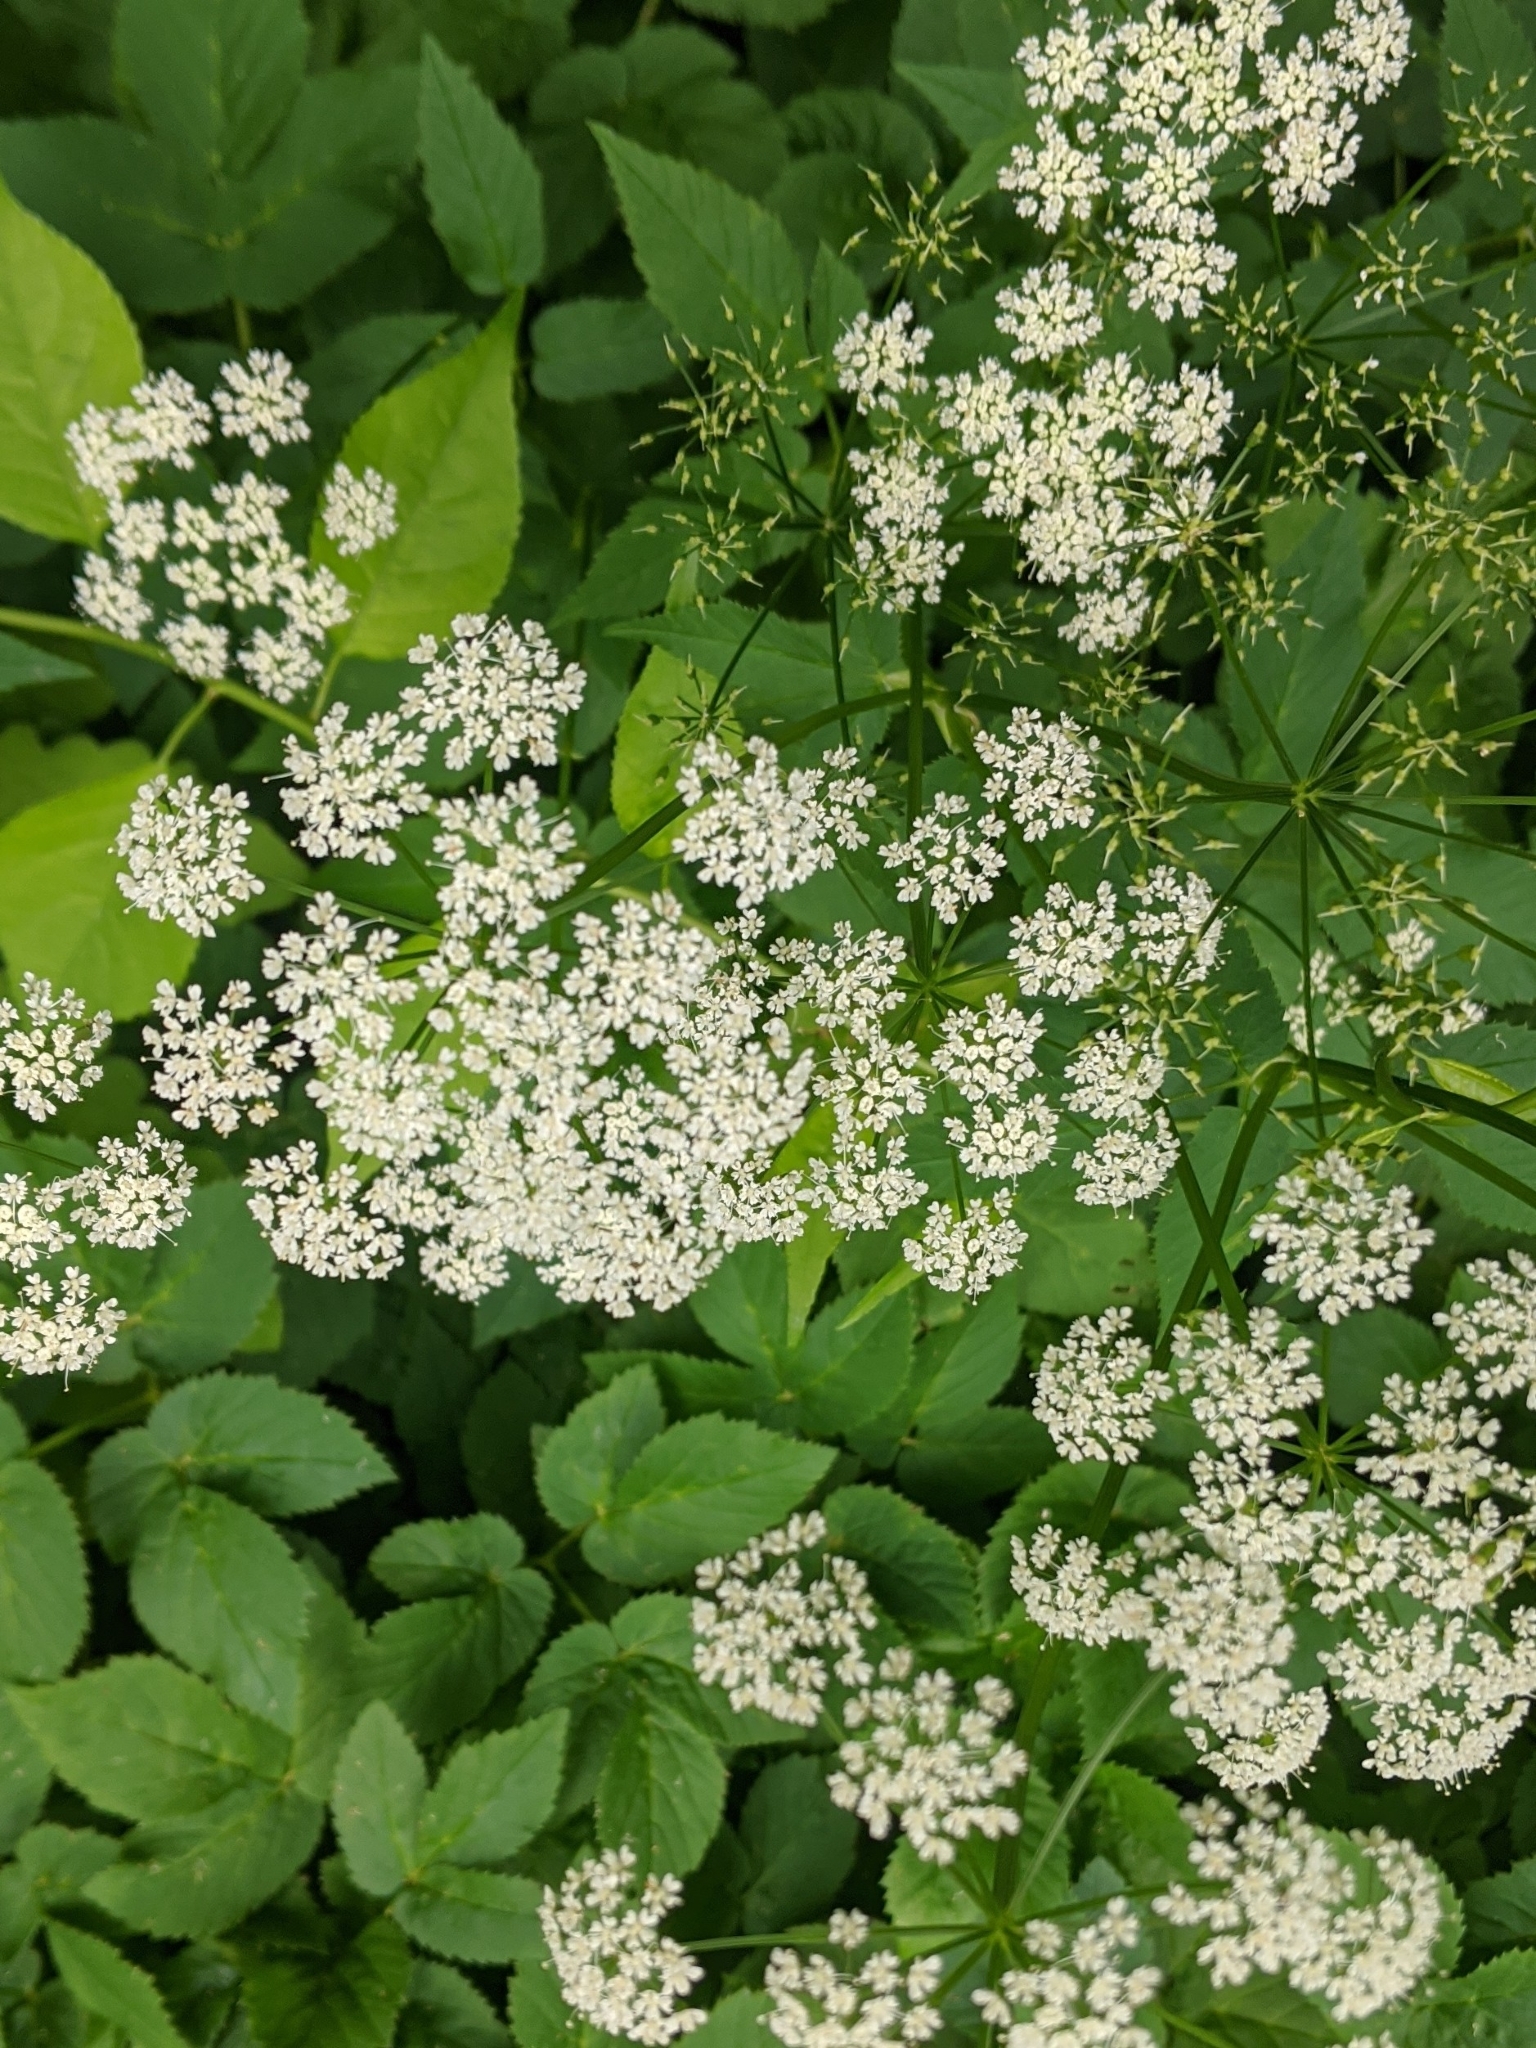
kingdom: Plantae
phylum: Tracheophyta
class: Magnoliopsida
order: Apiales
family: Apiaceae
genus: Aegopodium
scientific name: Aegopodium podagraria
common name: Ground-elder
